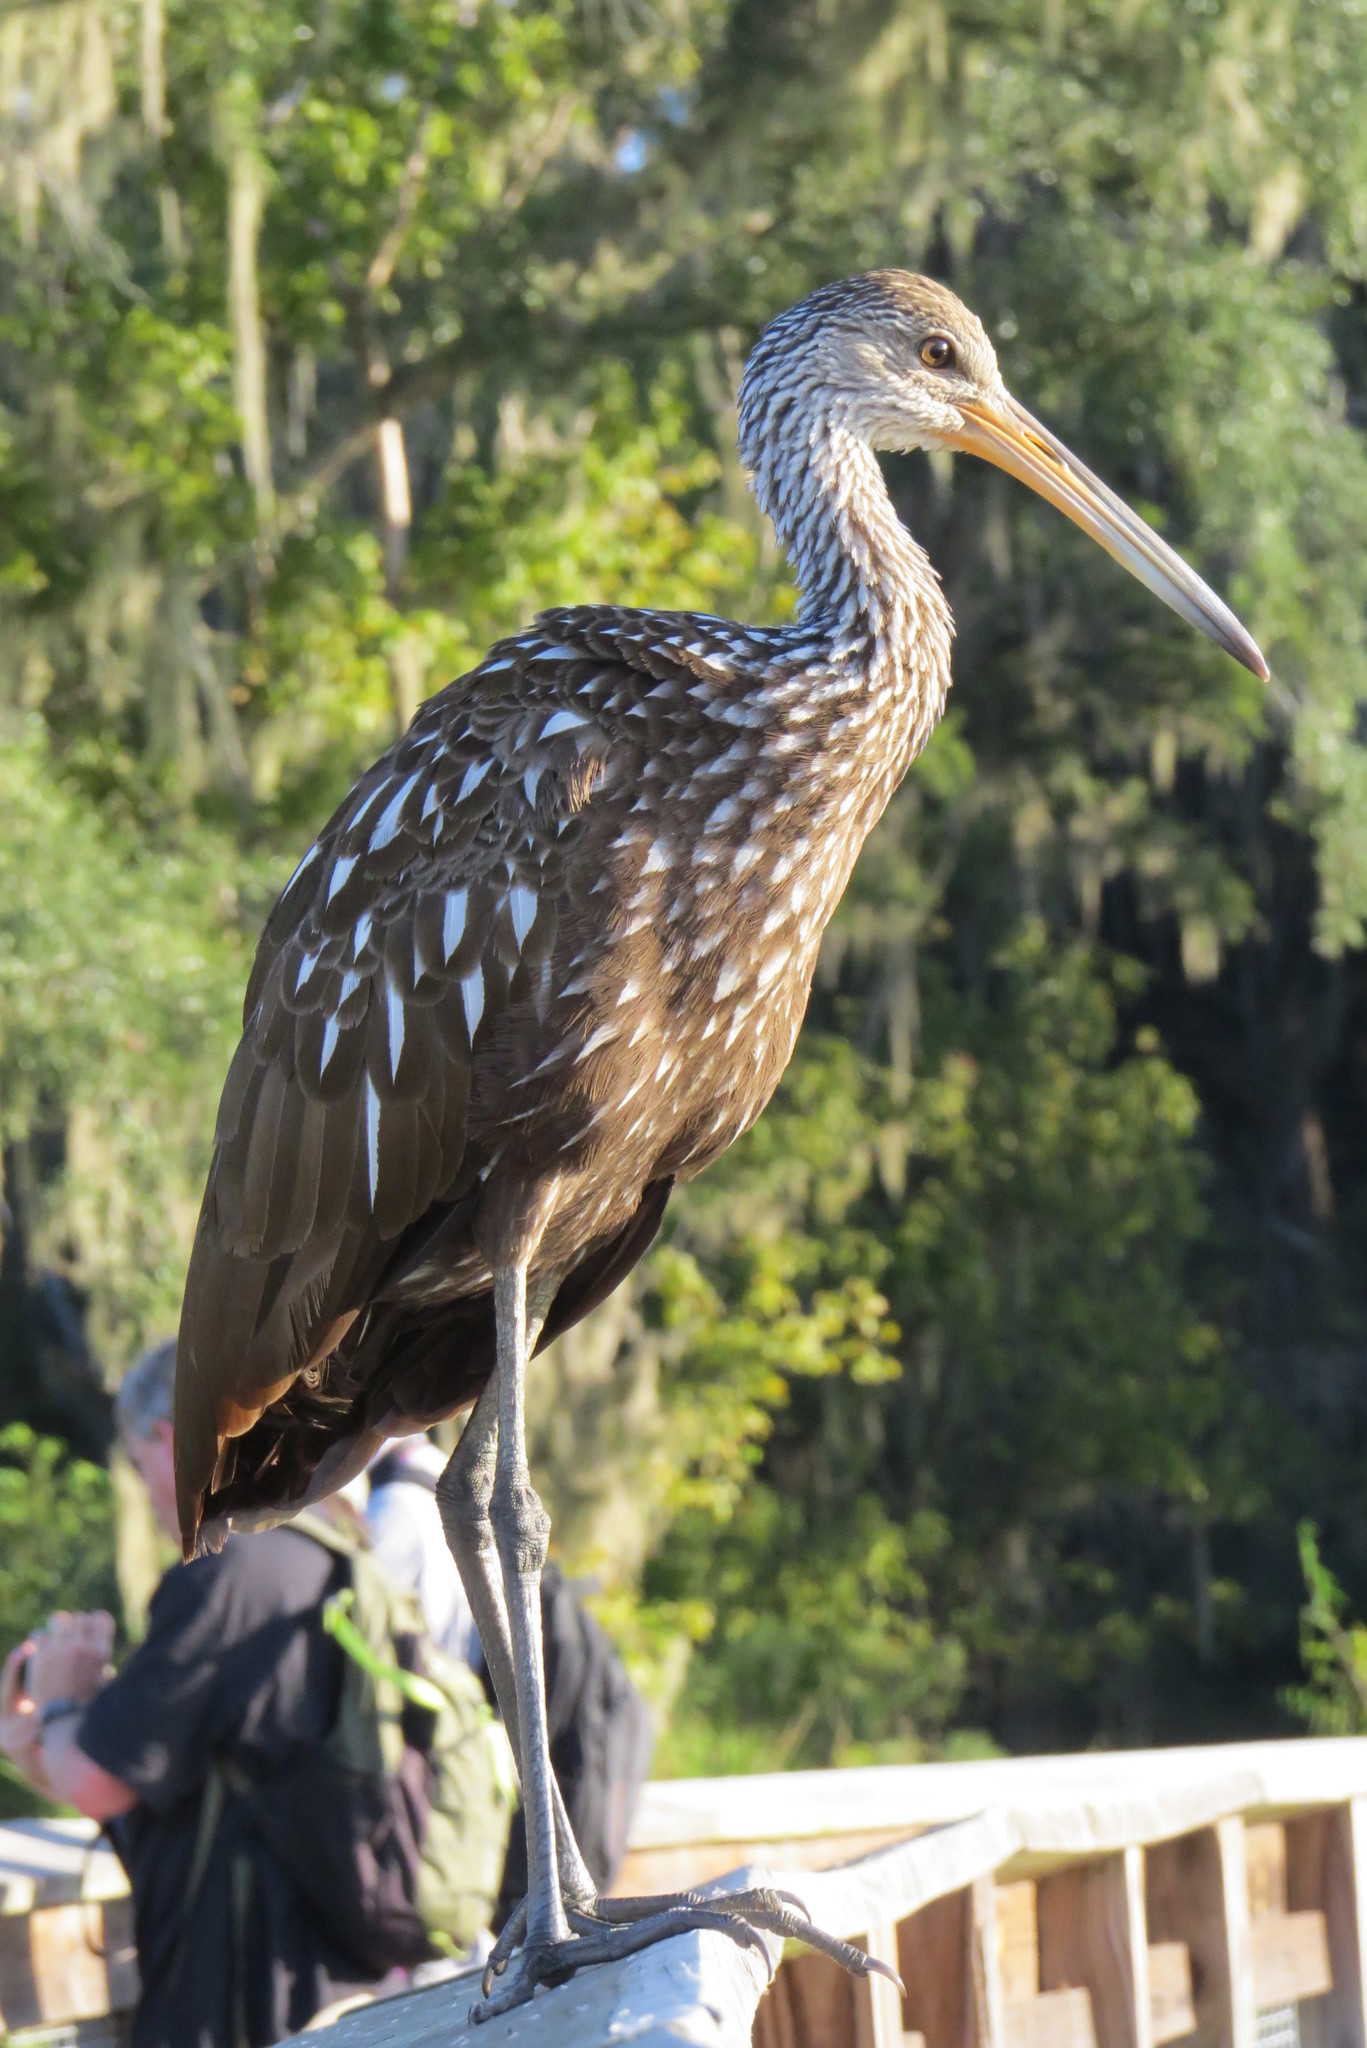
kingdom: Animalia
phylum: Chordata
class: Aves
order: Gruiformes
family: Aramidae
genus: Aramus
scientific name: Aramus guarauna
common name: Limpkin
